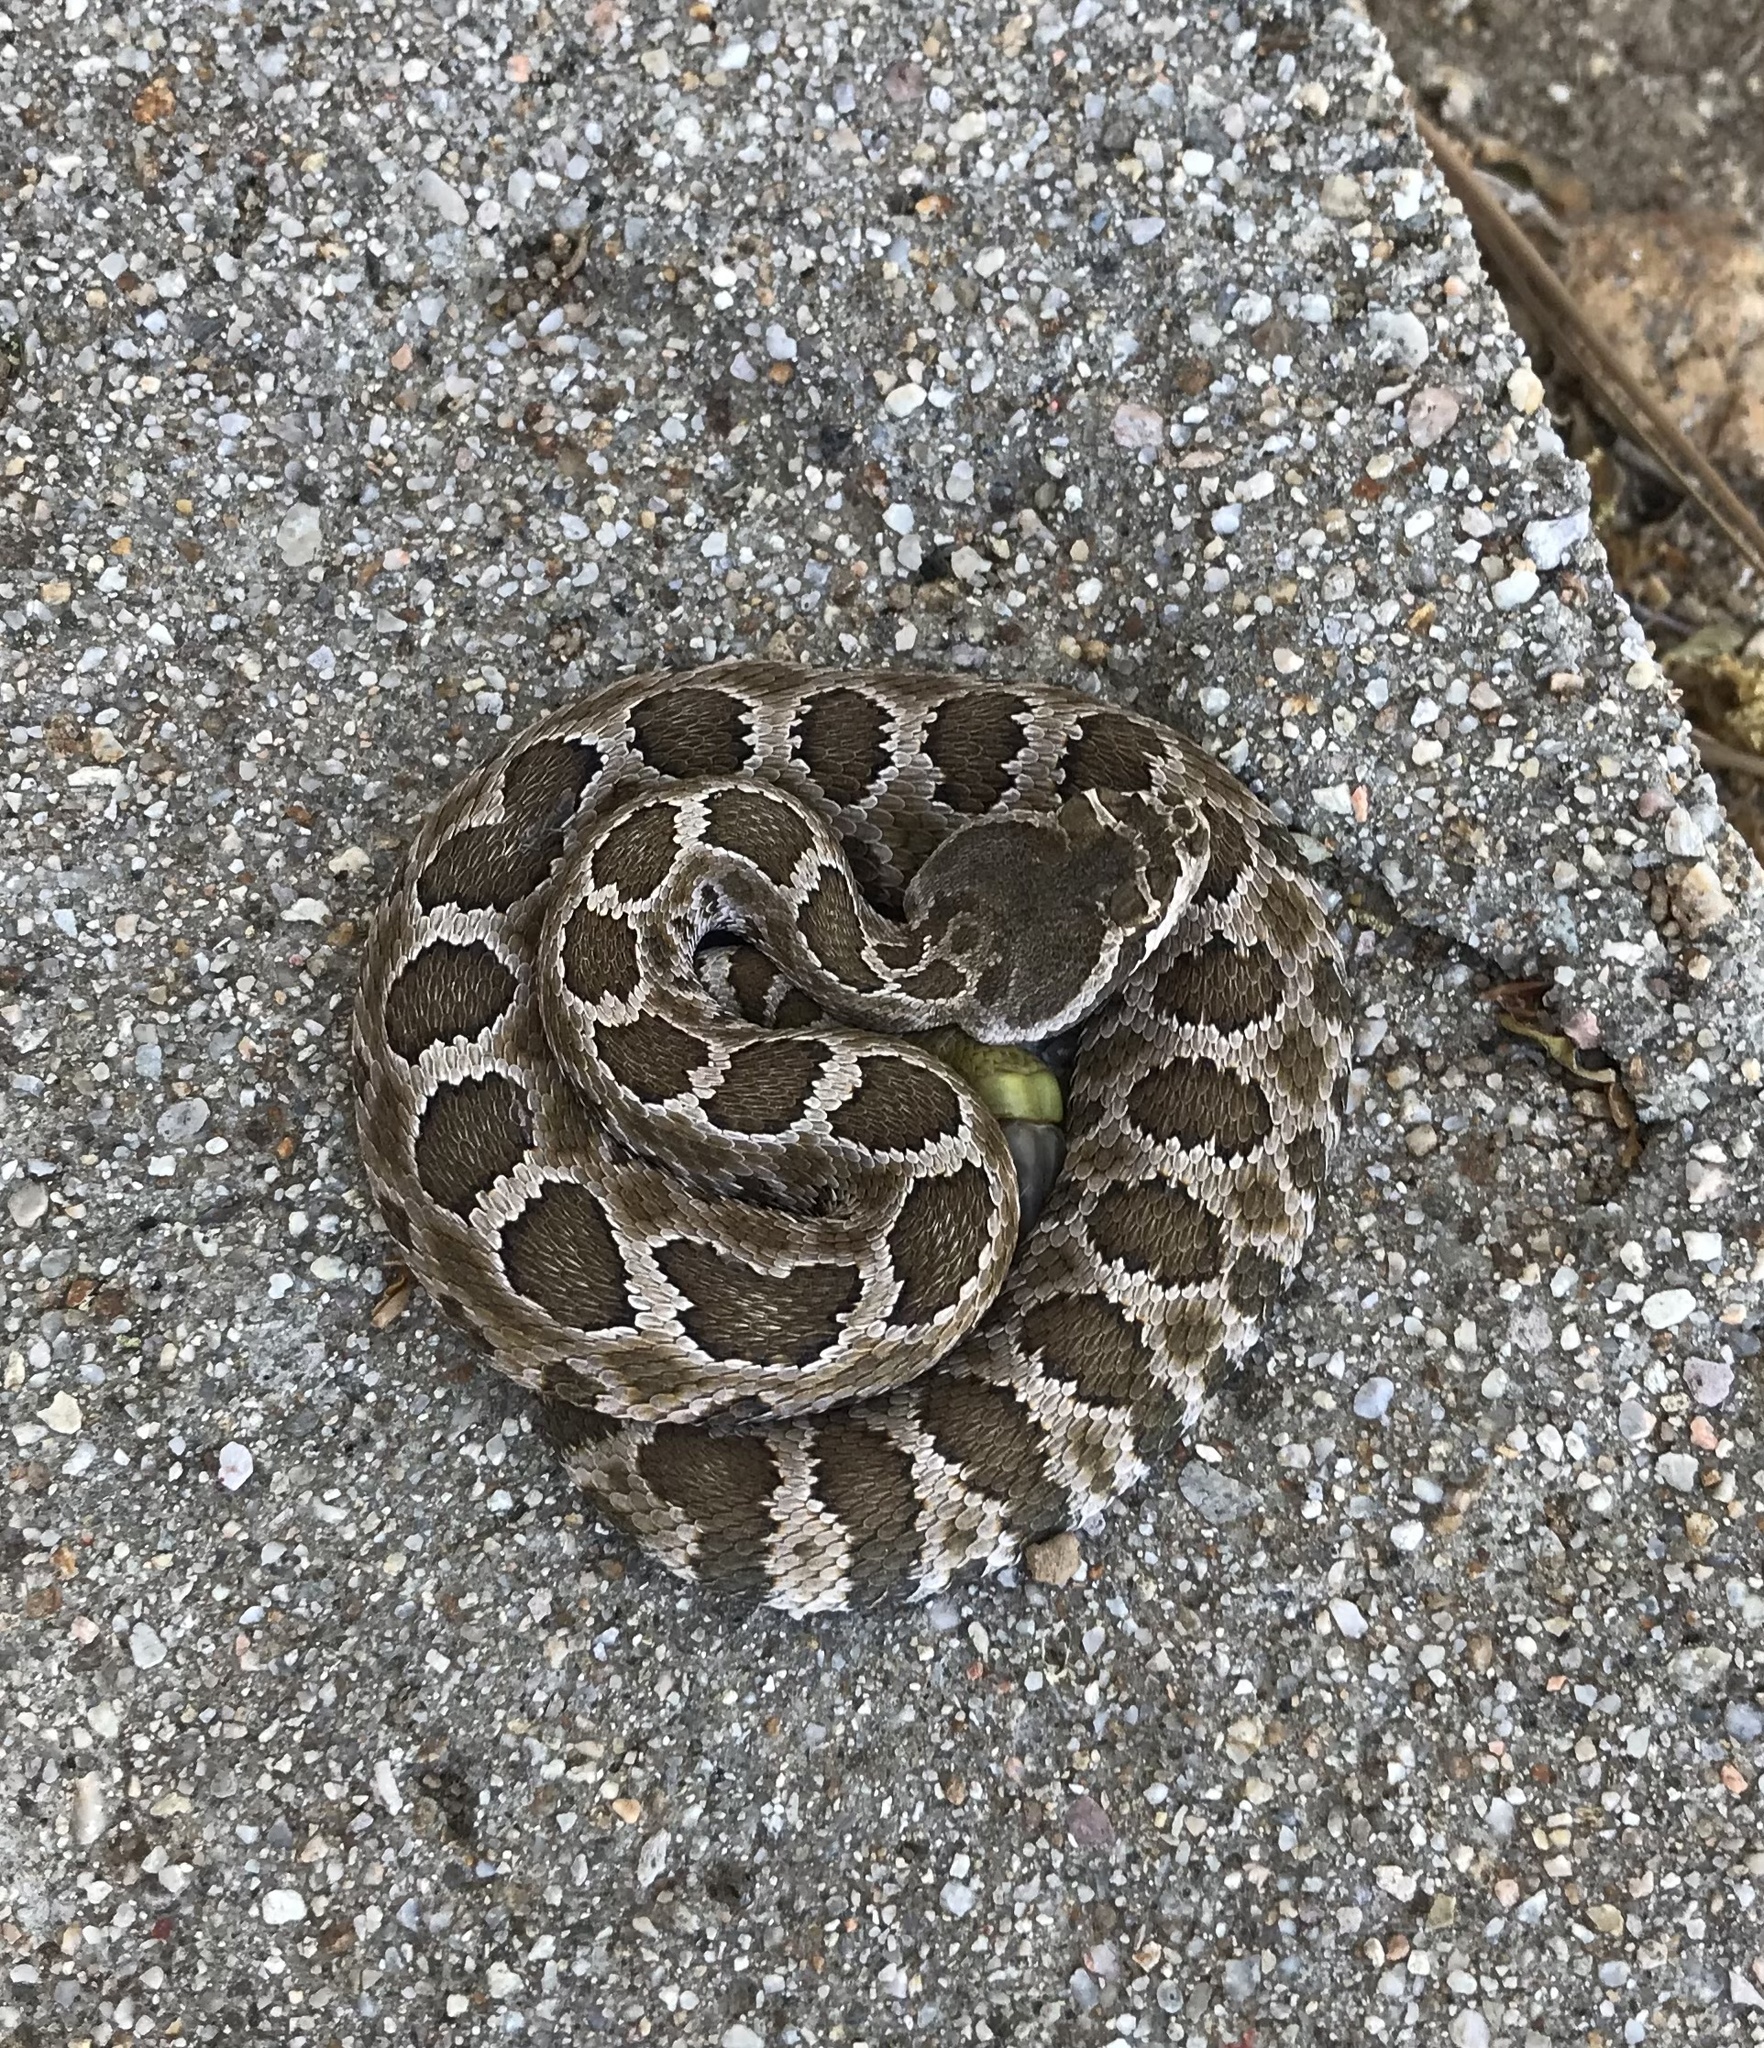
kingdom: Animalia
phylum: Chordata
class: Squamata
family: Viperidae
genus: Crotalus
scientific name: Crotalus oreganus
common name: Abyssus
